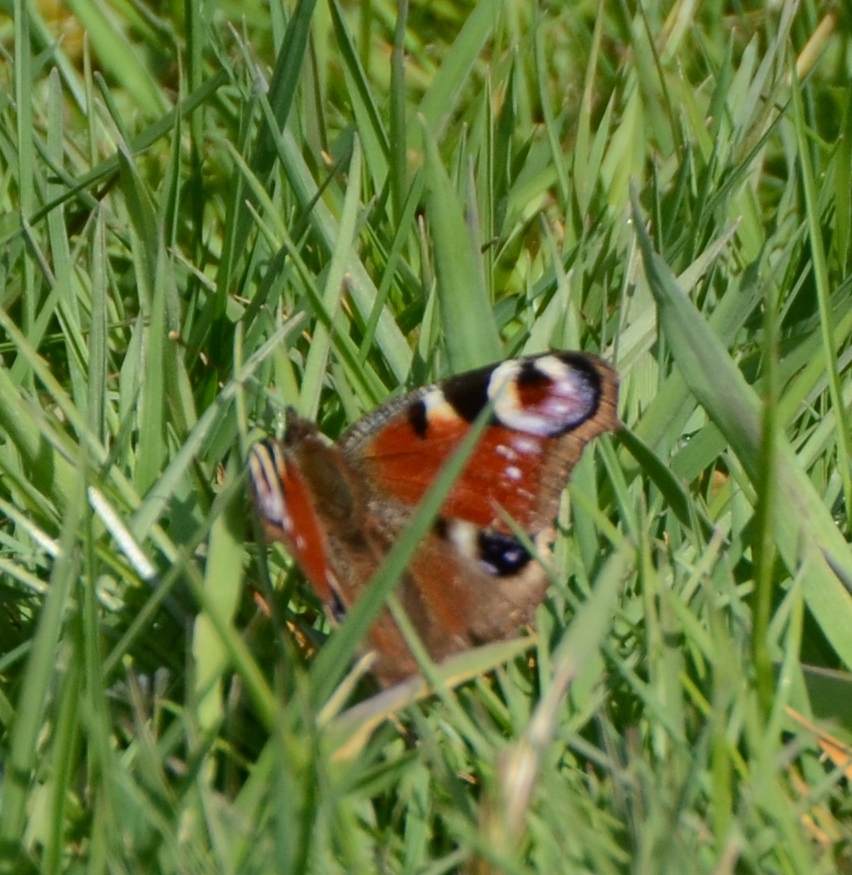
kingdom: Animalia
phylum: Arthropoda
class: Insecta
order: Lepidoptera
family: Nymphalidae
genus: Aglais
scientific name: Aglais io
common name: Peacock
